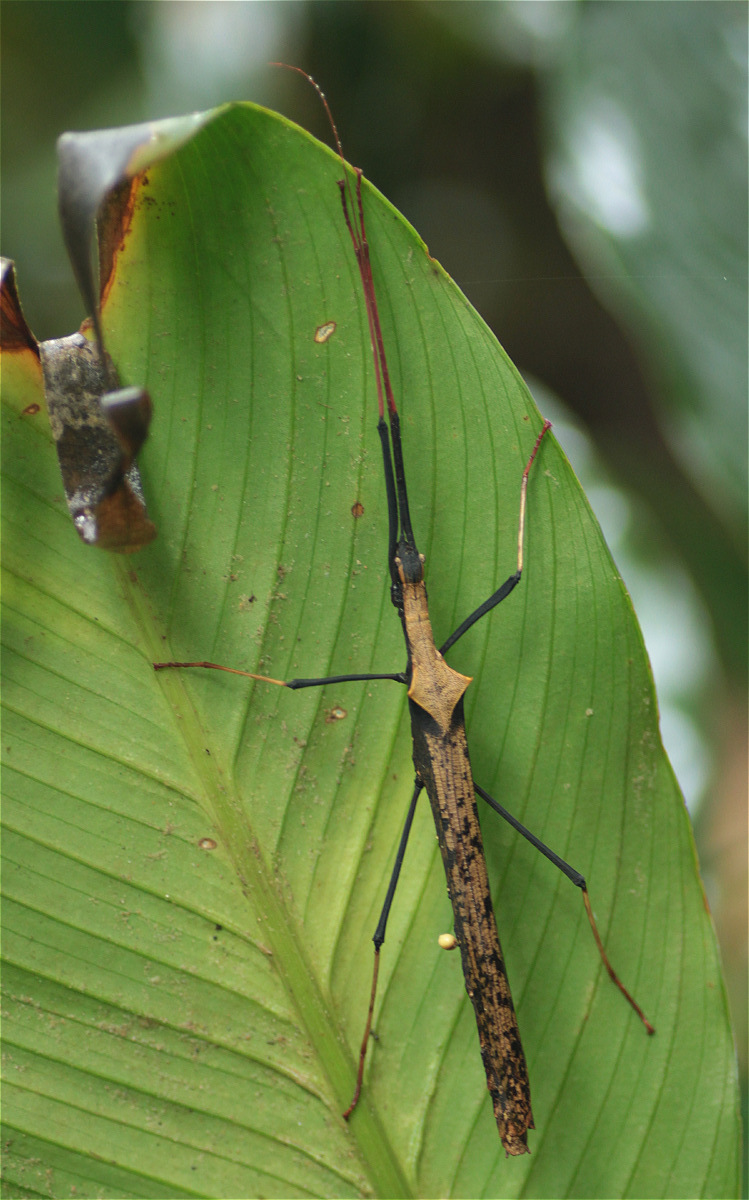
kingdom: Animalia
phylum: Arthropoda
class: Insecta
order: Phasmida
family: Pseudophasmatidae
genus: Pseudophasma
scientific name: Pseudophasma bispinosum
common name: Two-spined ecuador stick insect
